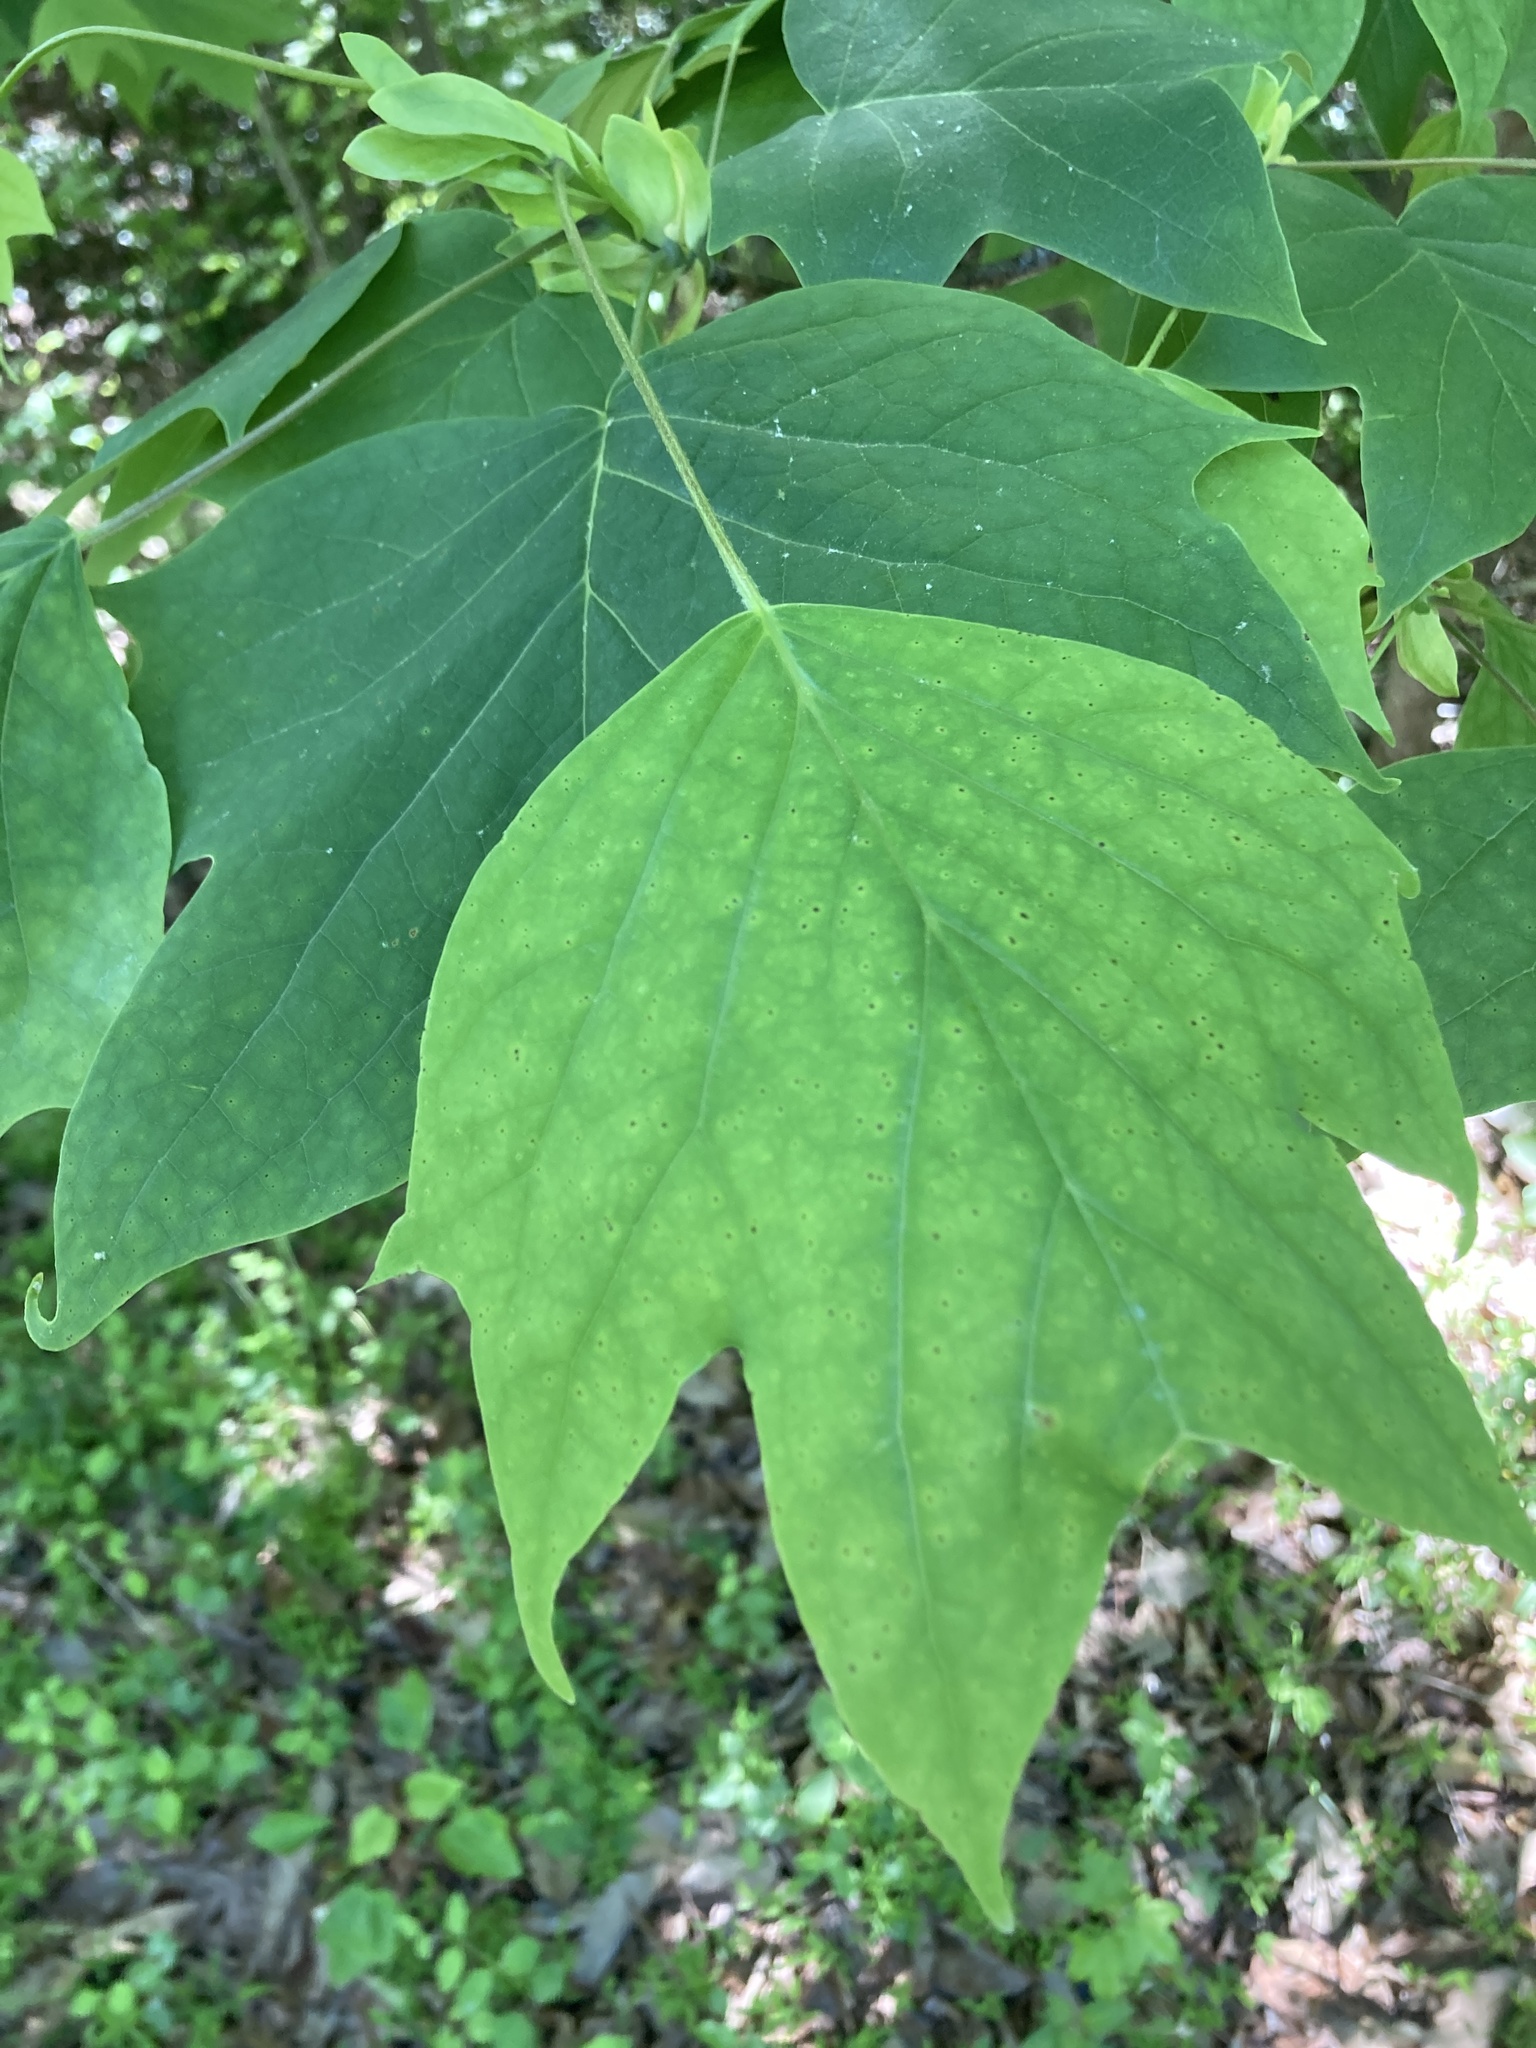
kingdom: Plantae
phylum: Tracheophyta
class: Magnoliopsida
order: Magnoliales
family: Magnoliaceae
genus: Liriodendron
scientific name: Liriodendron tulipifera
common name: Tulip tree
